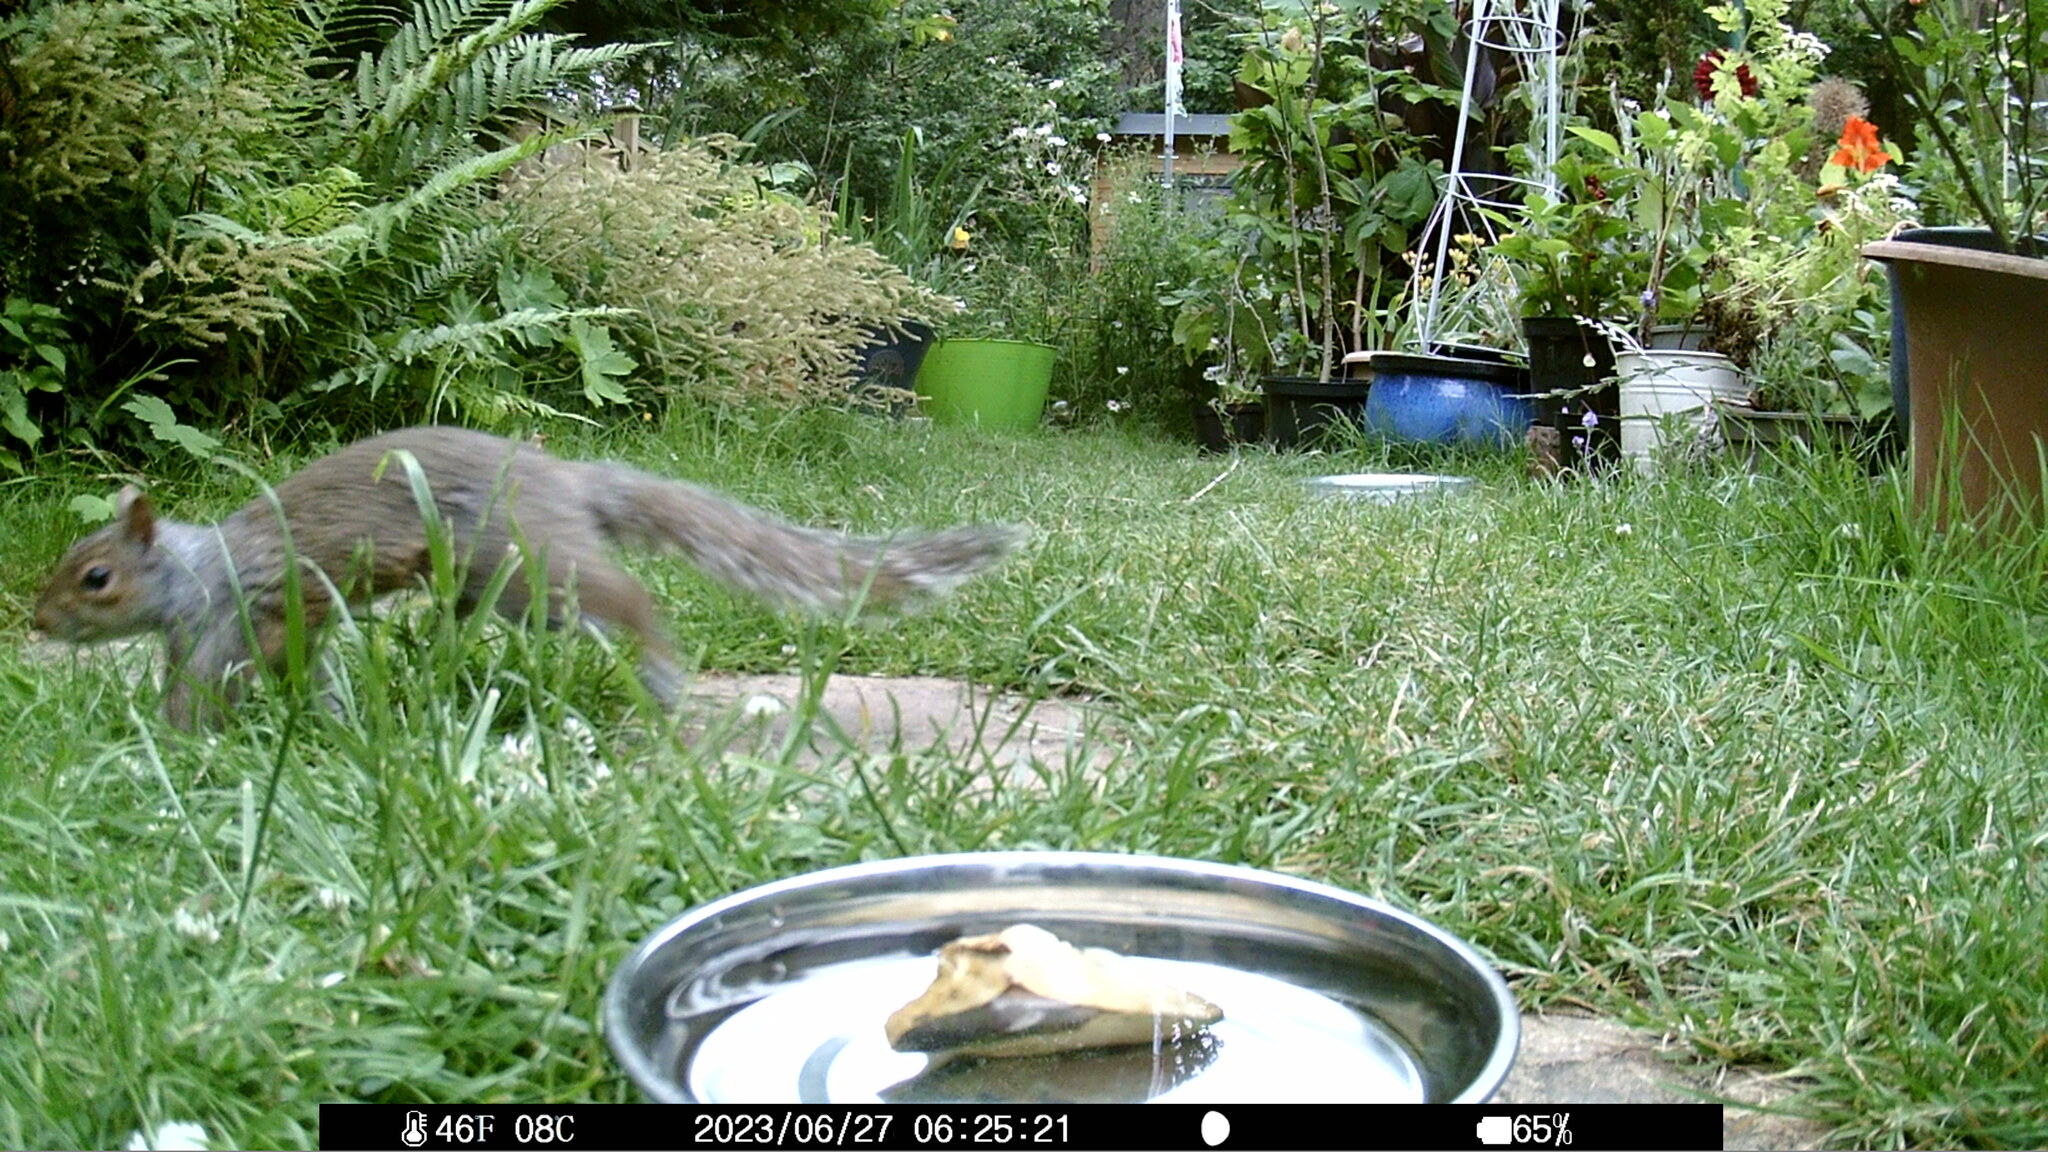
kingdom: Animalia
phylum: Chordata
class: Mammalia
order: Rodentia
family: Sciuridae
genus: Sciurus
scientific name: Sciurus carolinensis
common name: Eastern gray squirrel
